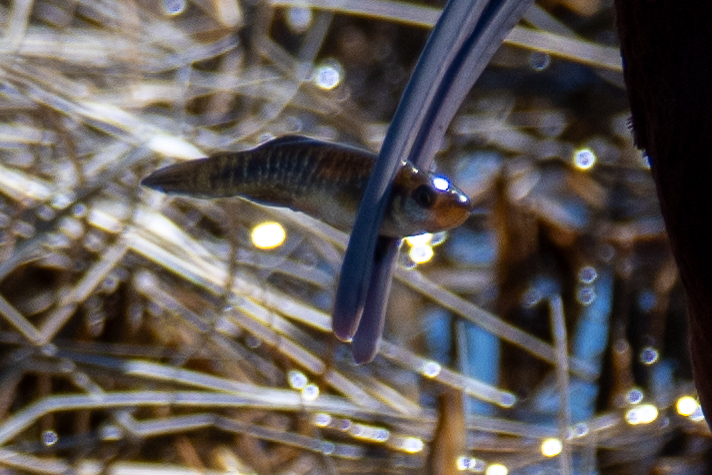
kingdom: Animalia
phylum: Chordata
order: Cyprinodontiformes
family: Fundulidae
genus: Fundulus
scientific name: Fundulus heteroclitus
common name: Mummichog
